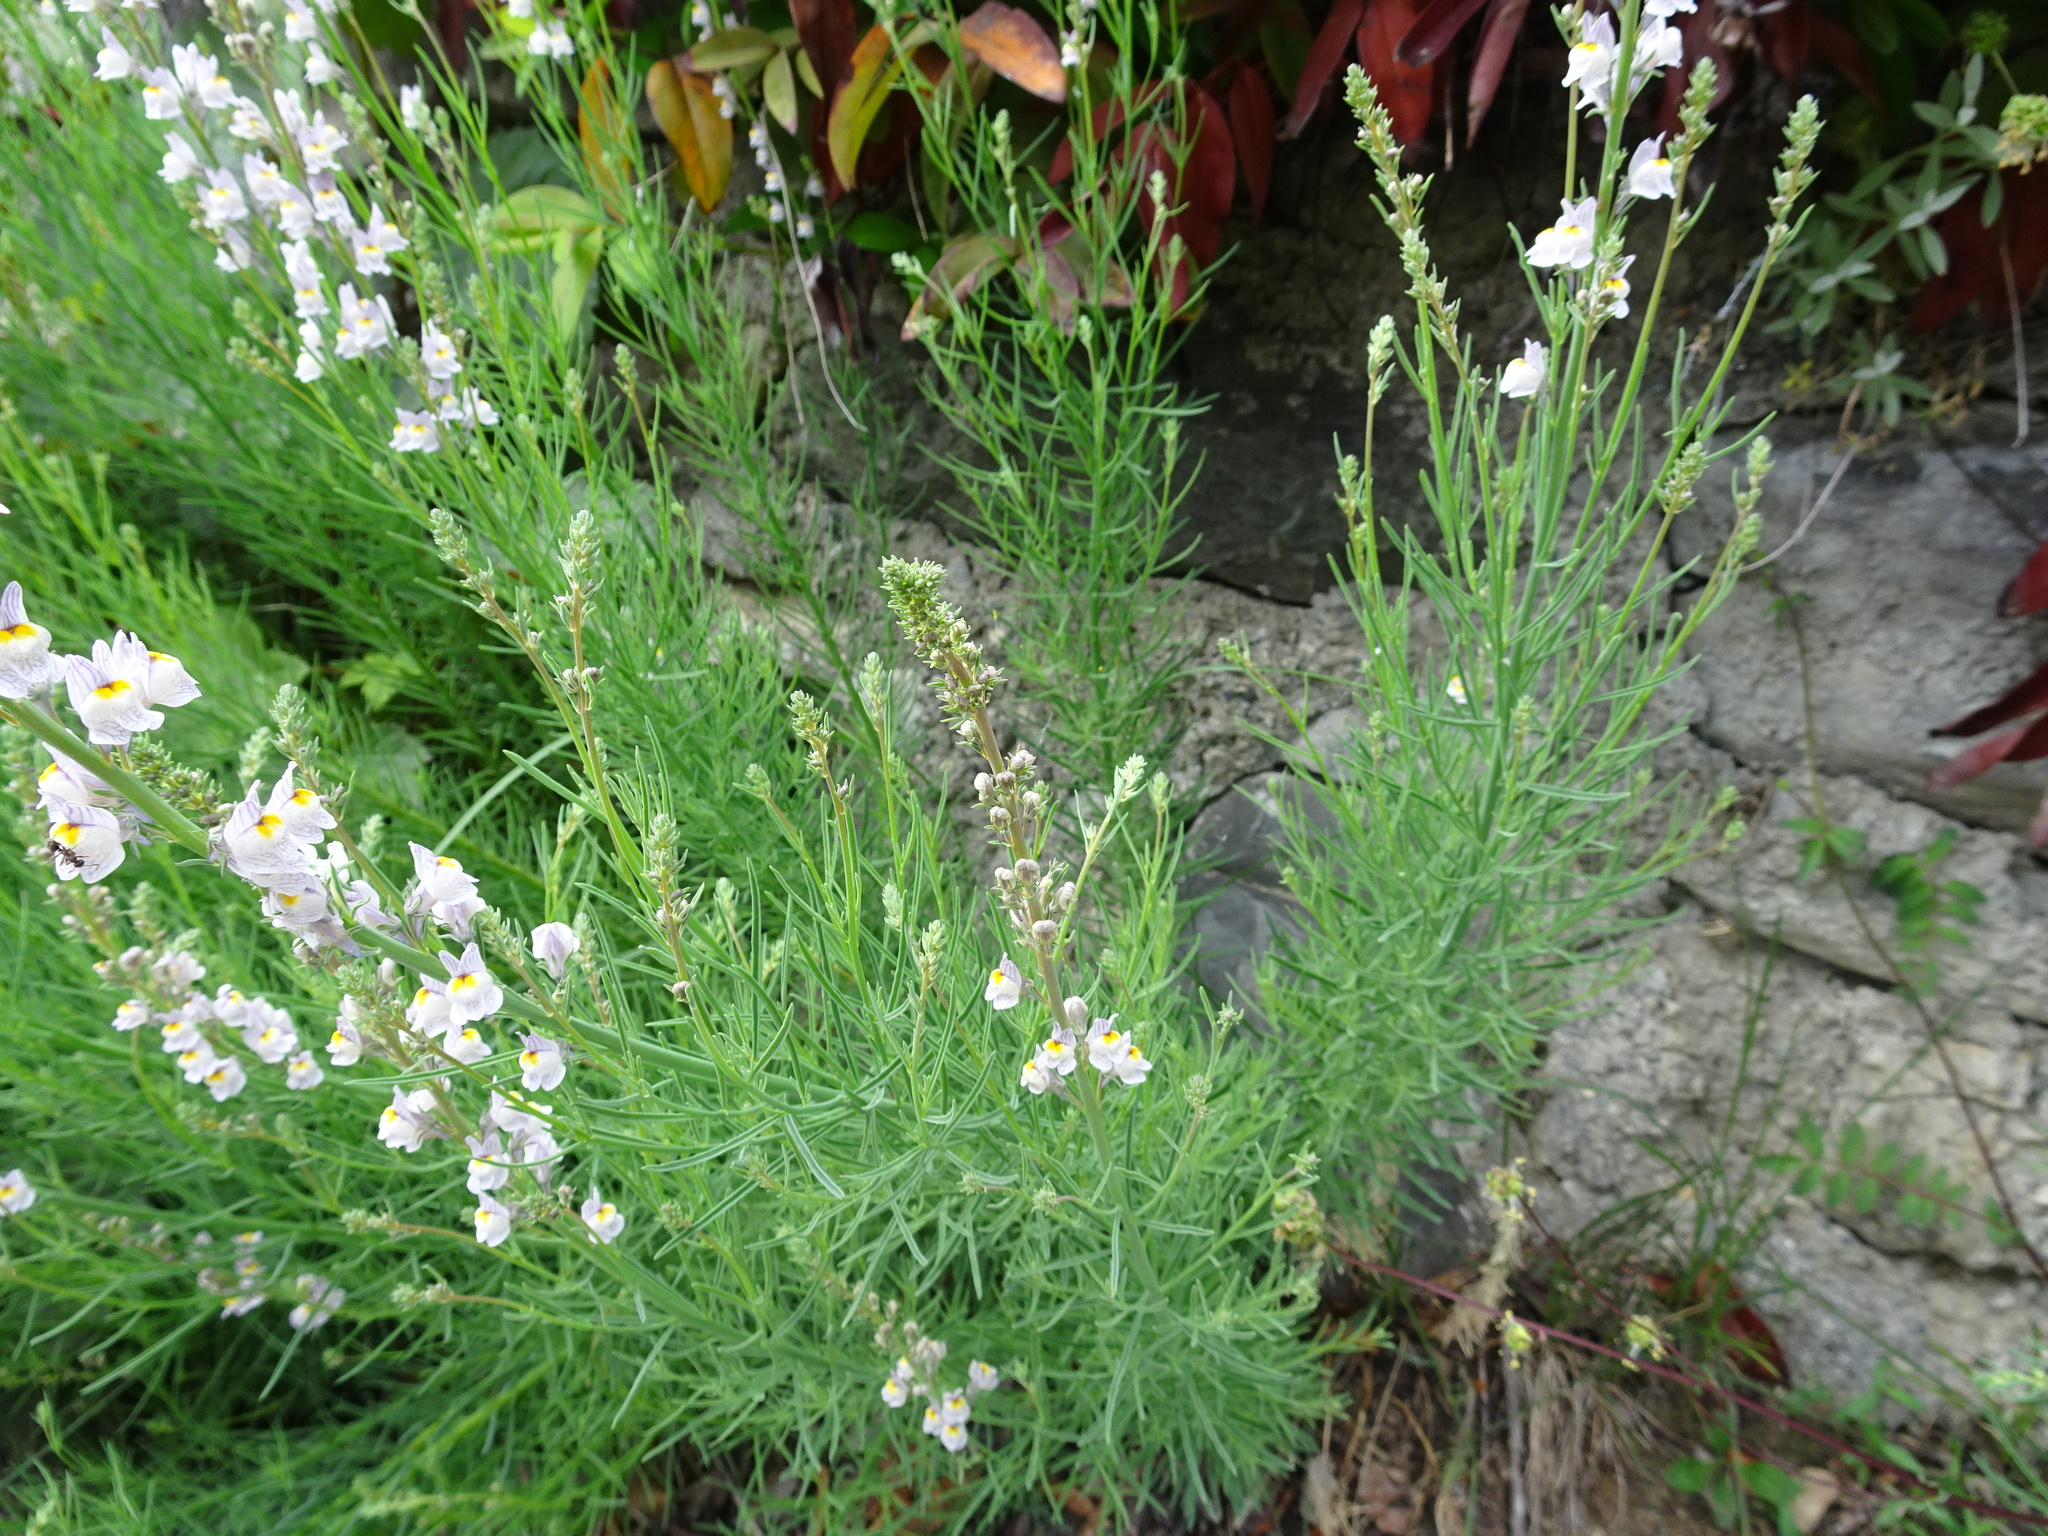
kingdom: Plantae
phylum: Tracheophyta
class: Magnoliopsida
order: Lamiales
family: Plantaginaceae
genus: Linaria
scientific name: Linaria repens
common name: Pale toadflax
